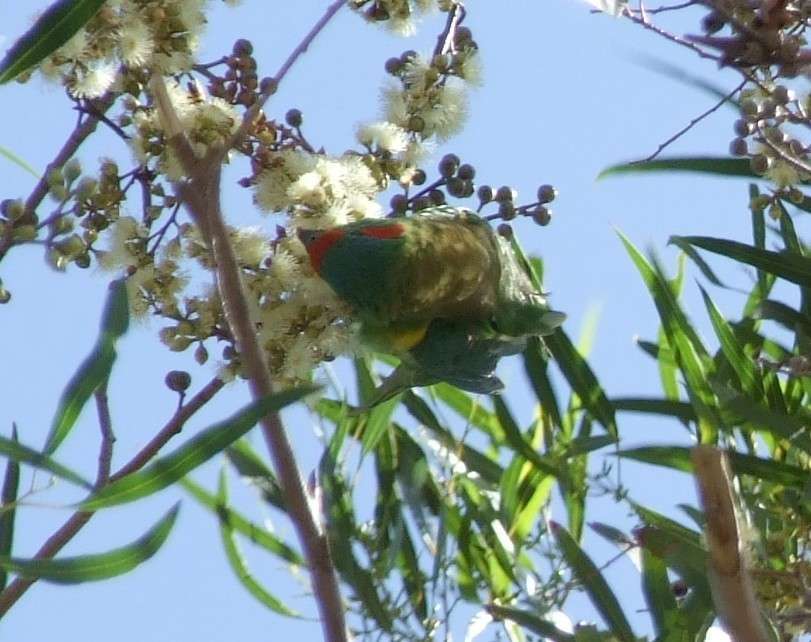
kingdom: Animalia
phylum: Chordata
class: Aves
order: Psittaciformes
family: Psittacidae
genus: Glossopsitta
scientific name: Glossopsitta concinna
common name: Musk lorikeet
